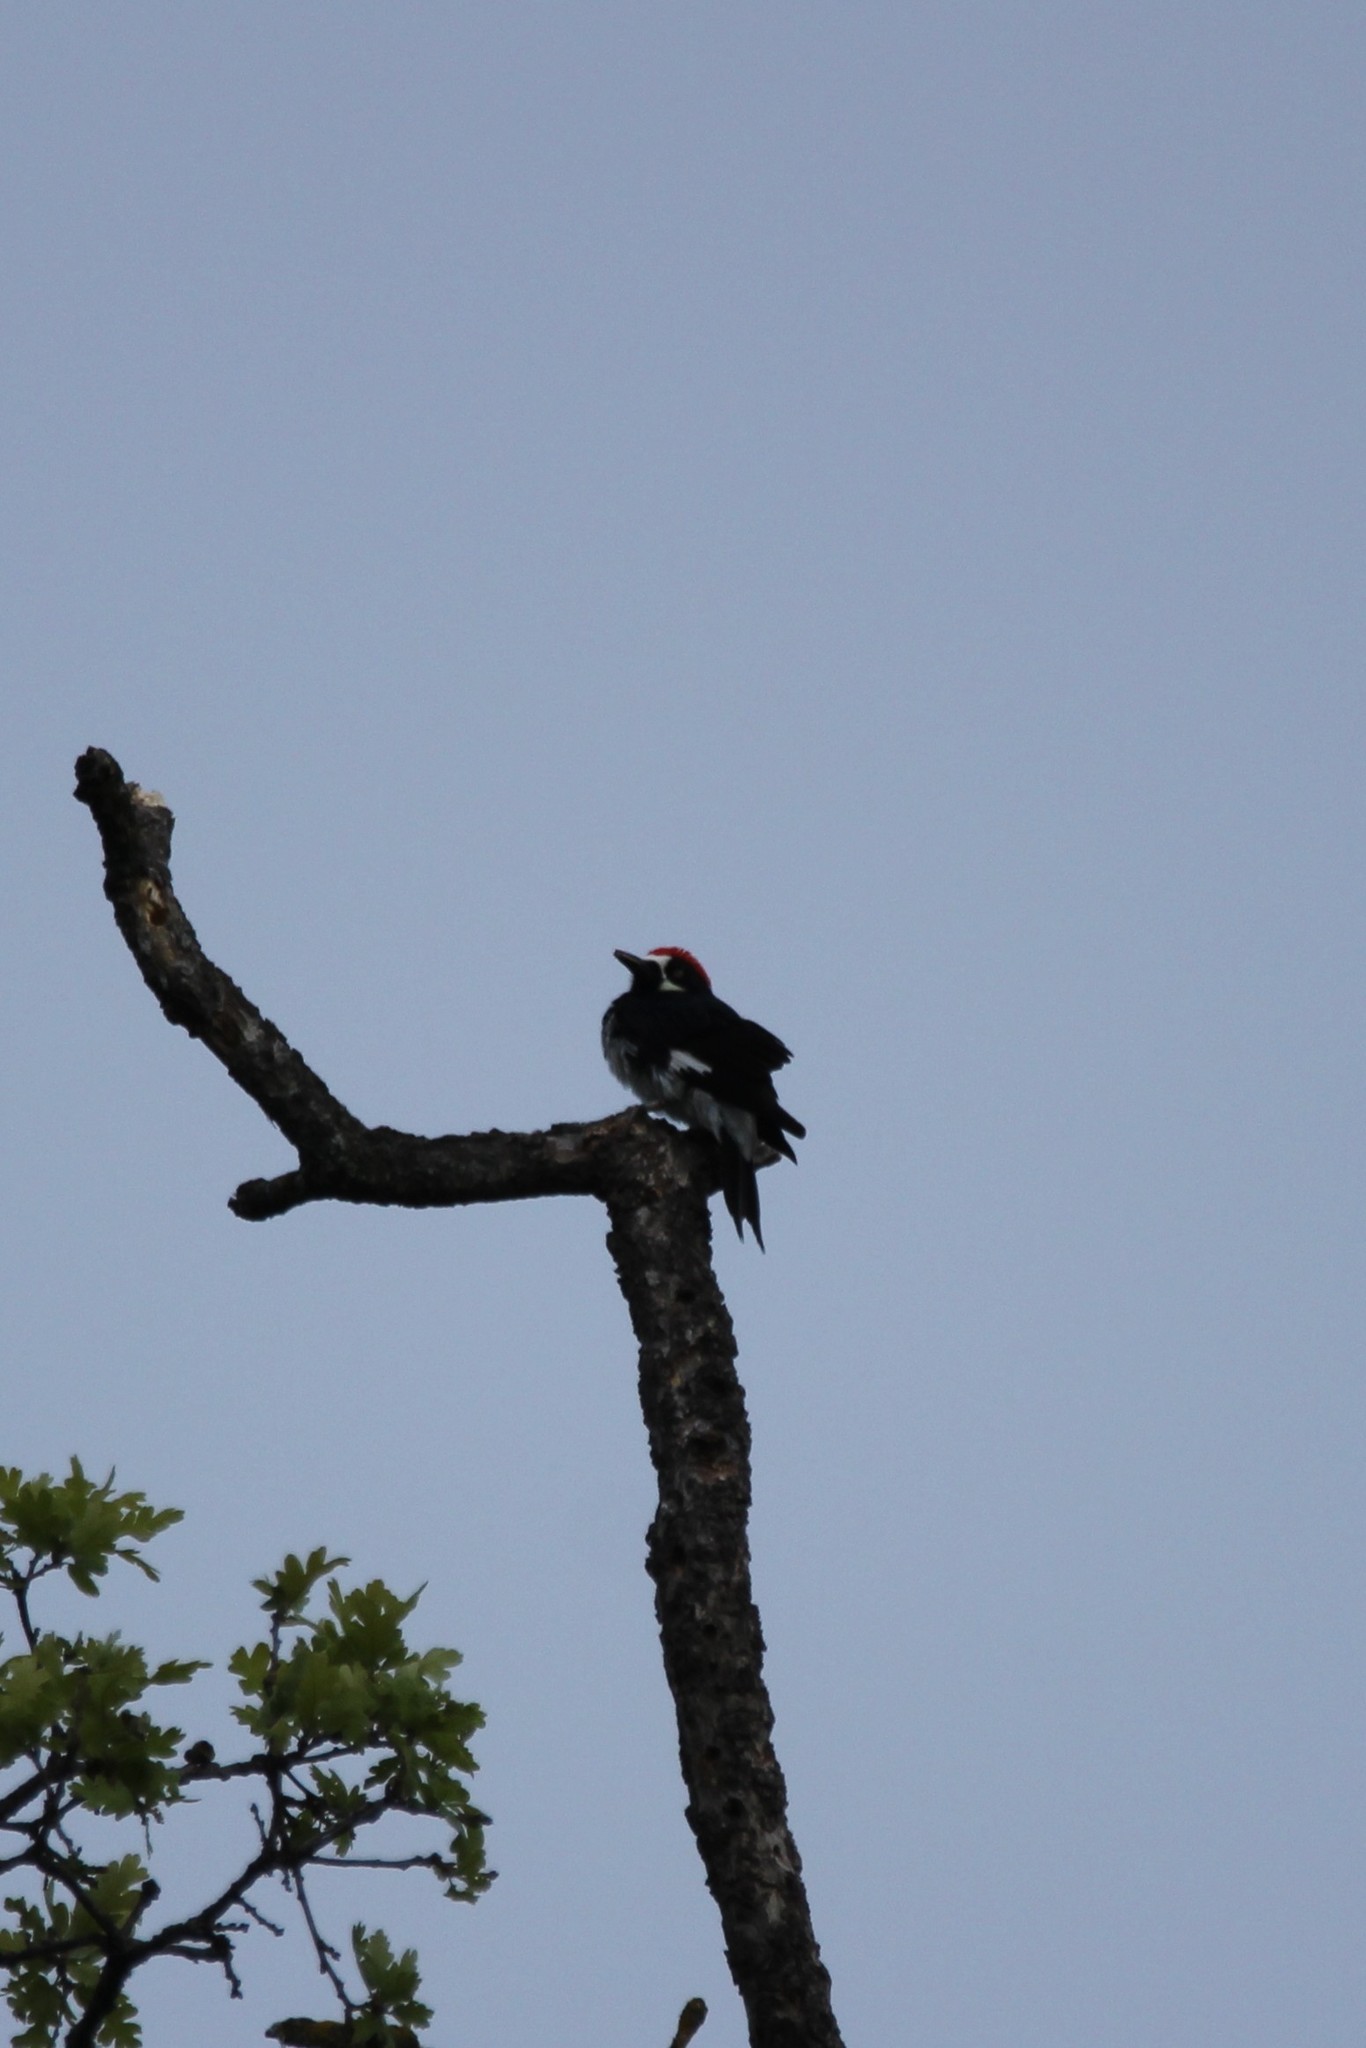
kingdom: Animalia
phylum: Chordata
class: Aves
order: Piciformes
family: Picidae
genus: Melanerpes
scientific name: Melanerpes formicivorus
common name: Acorn woodpecker
